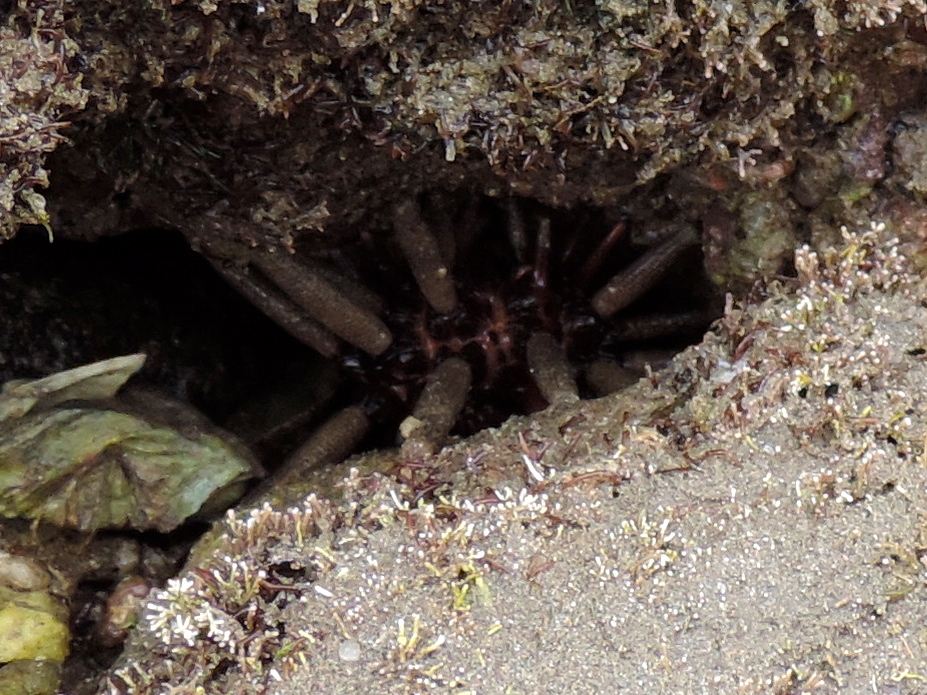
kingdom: Animalia
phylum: Echinodermata
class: Echinoidea
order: Cidaroida
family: Cidaridae
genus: Eucidaris
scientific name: Eucidaris thouarsii
